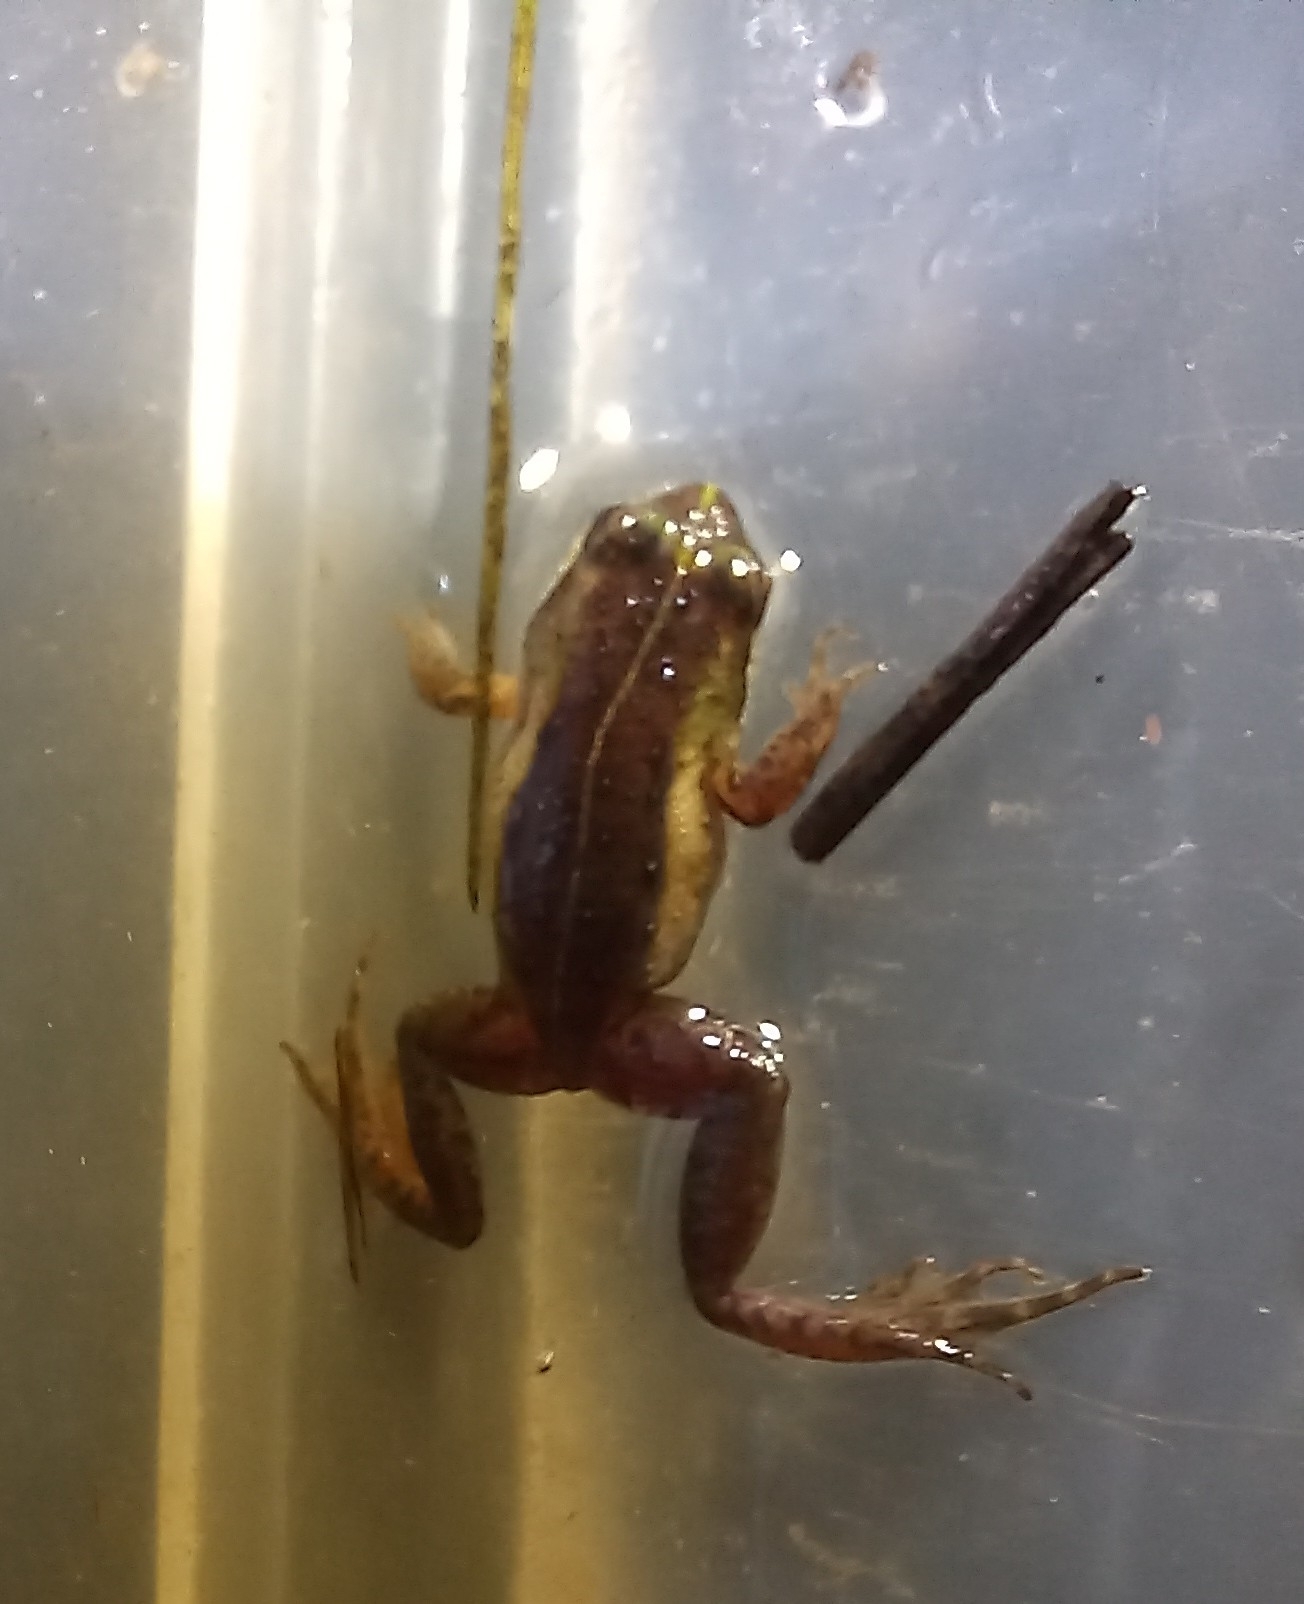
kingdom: Animalia
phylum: Chordata
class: Amphibia
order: Anura
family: Pyxicephalidae
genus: Microbatrachella
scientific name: Microbatrachella capensis
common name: Cape flats frog
